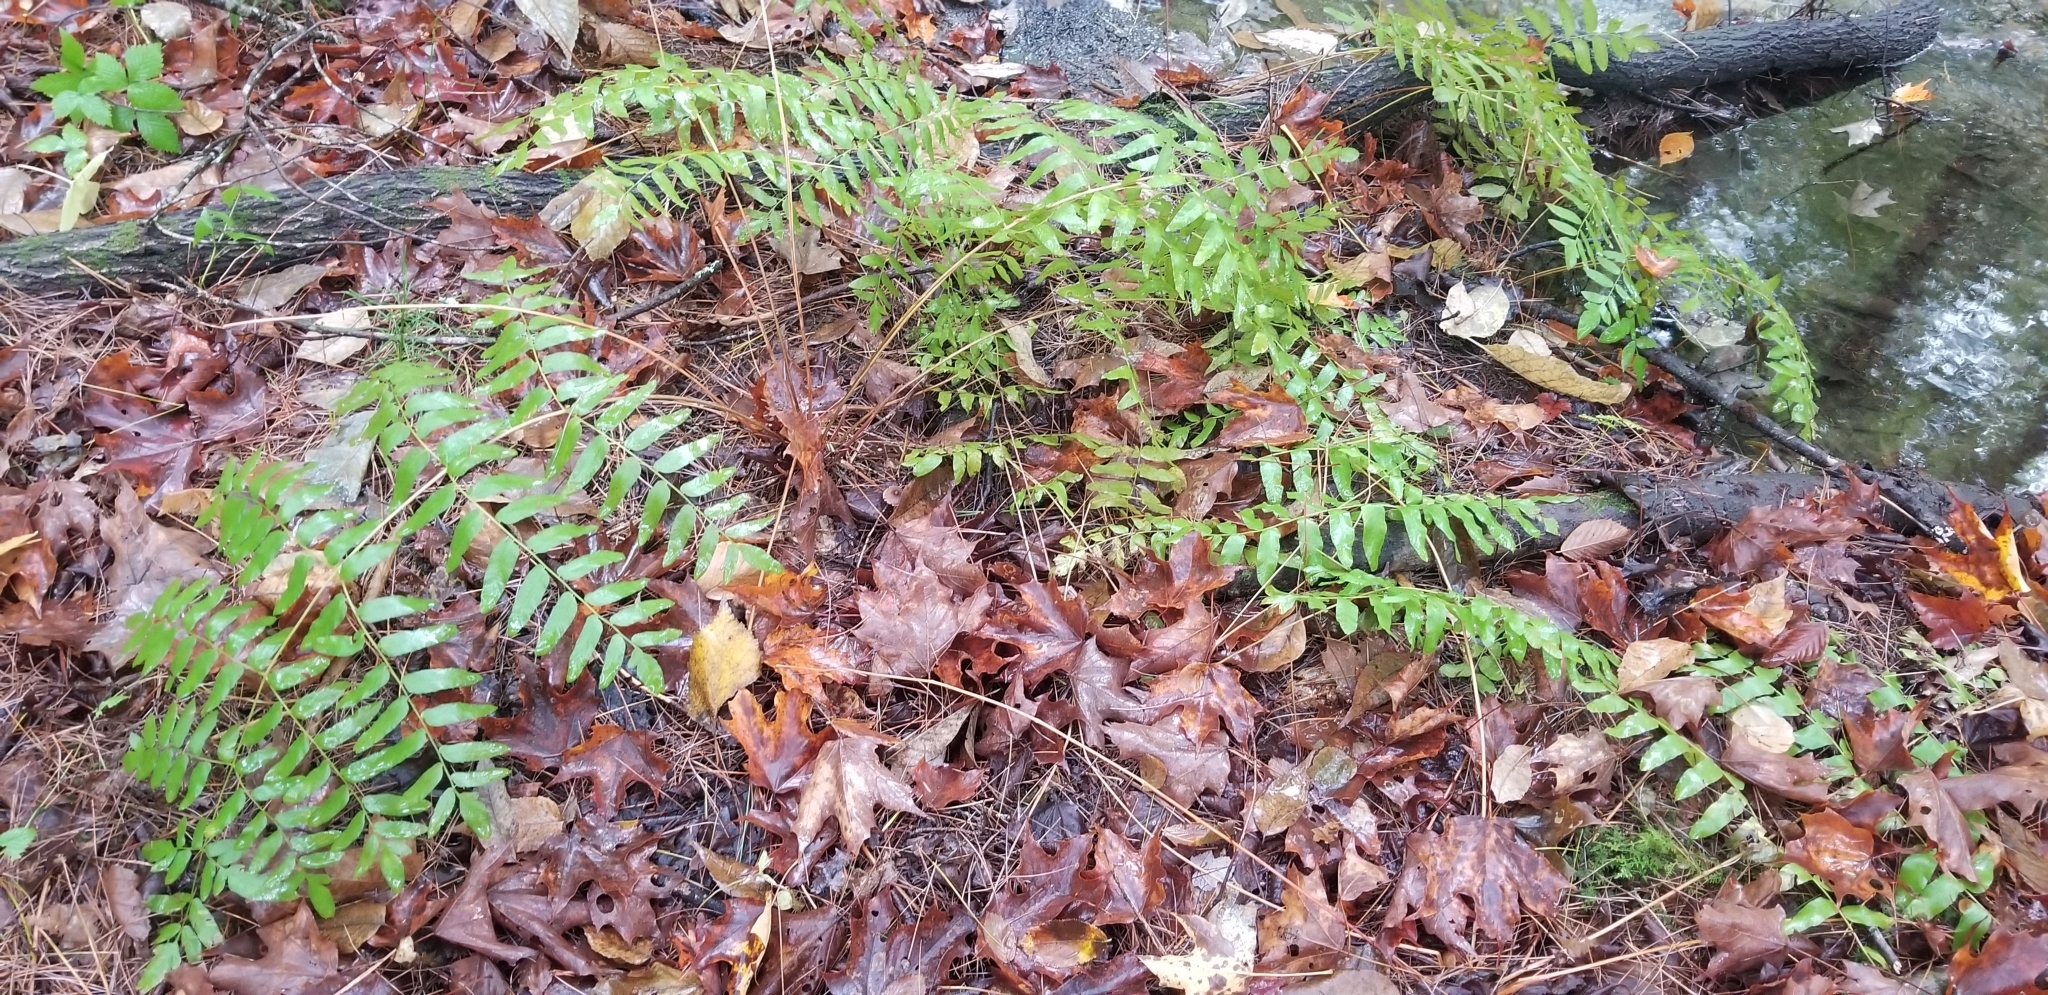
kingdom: Plantae
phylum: Tracheophyta
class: Polypodiopsida
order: Osmundales
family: Osmundaceae
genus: Osmunda
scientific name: Osmunda spectabilis
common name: American royal fern
